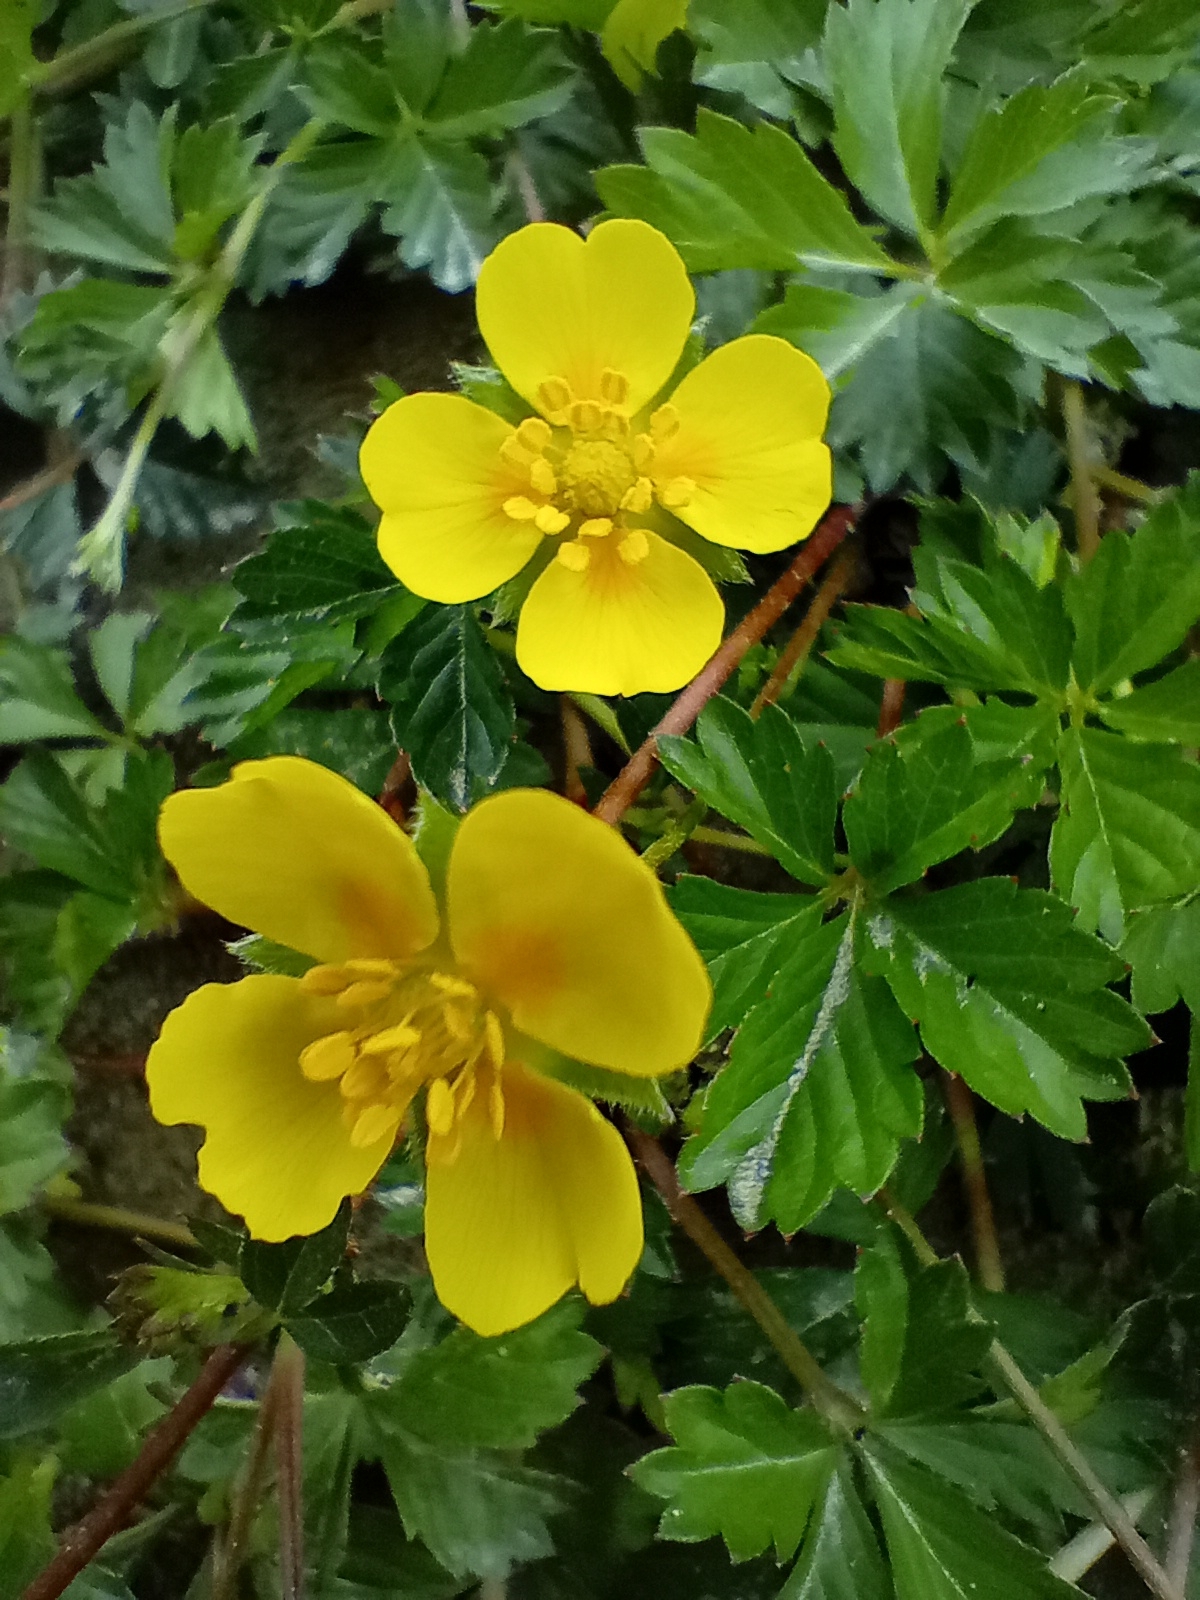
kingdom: Plantae
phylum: Tracheophyta
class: Magnoliopsida
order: Rosales
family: Rosaceae
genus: Potentilla
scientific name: Potentilla anglica
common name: Trailing tormentil
